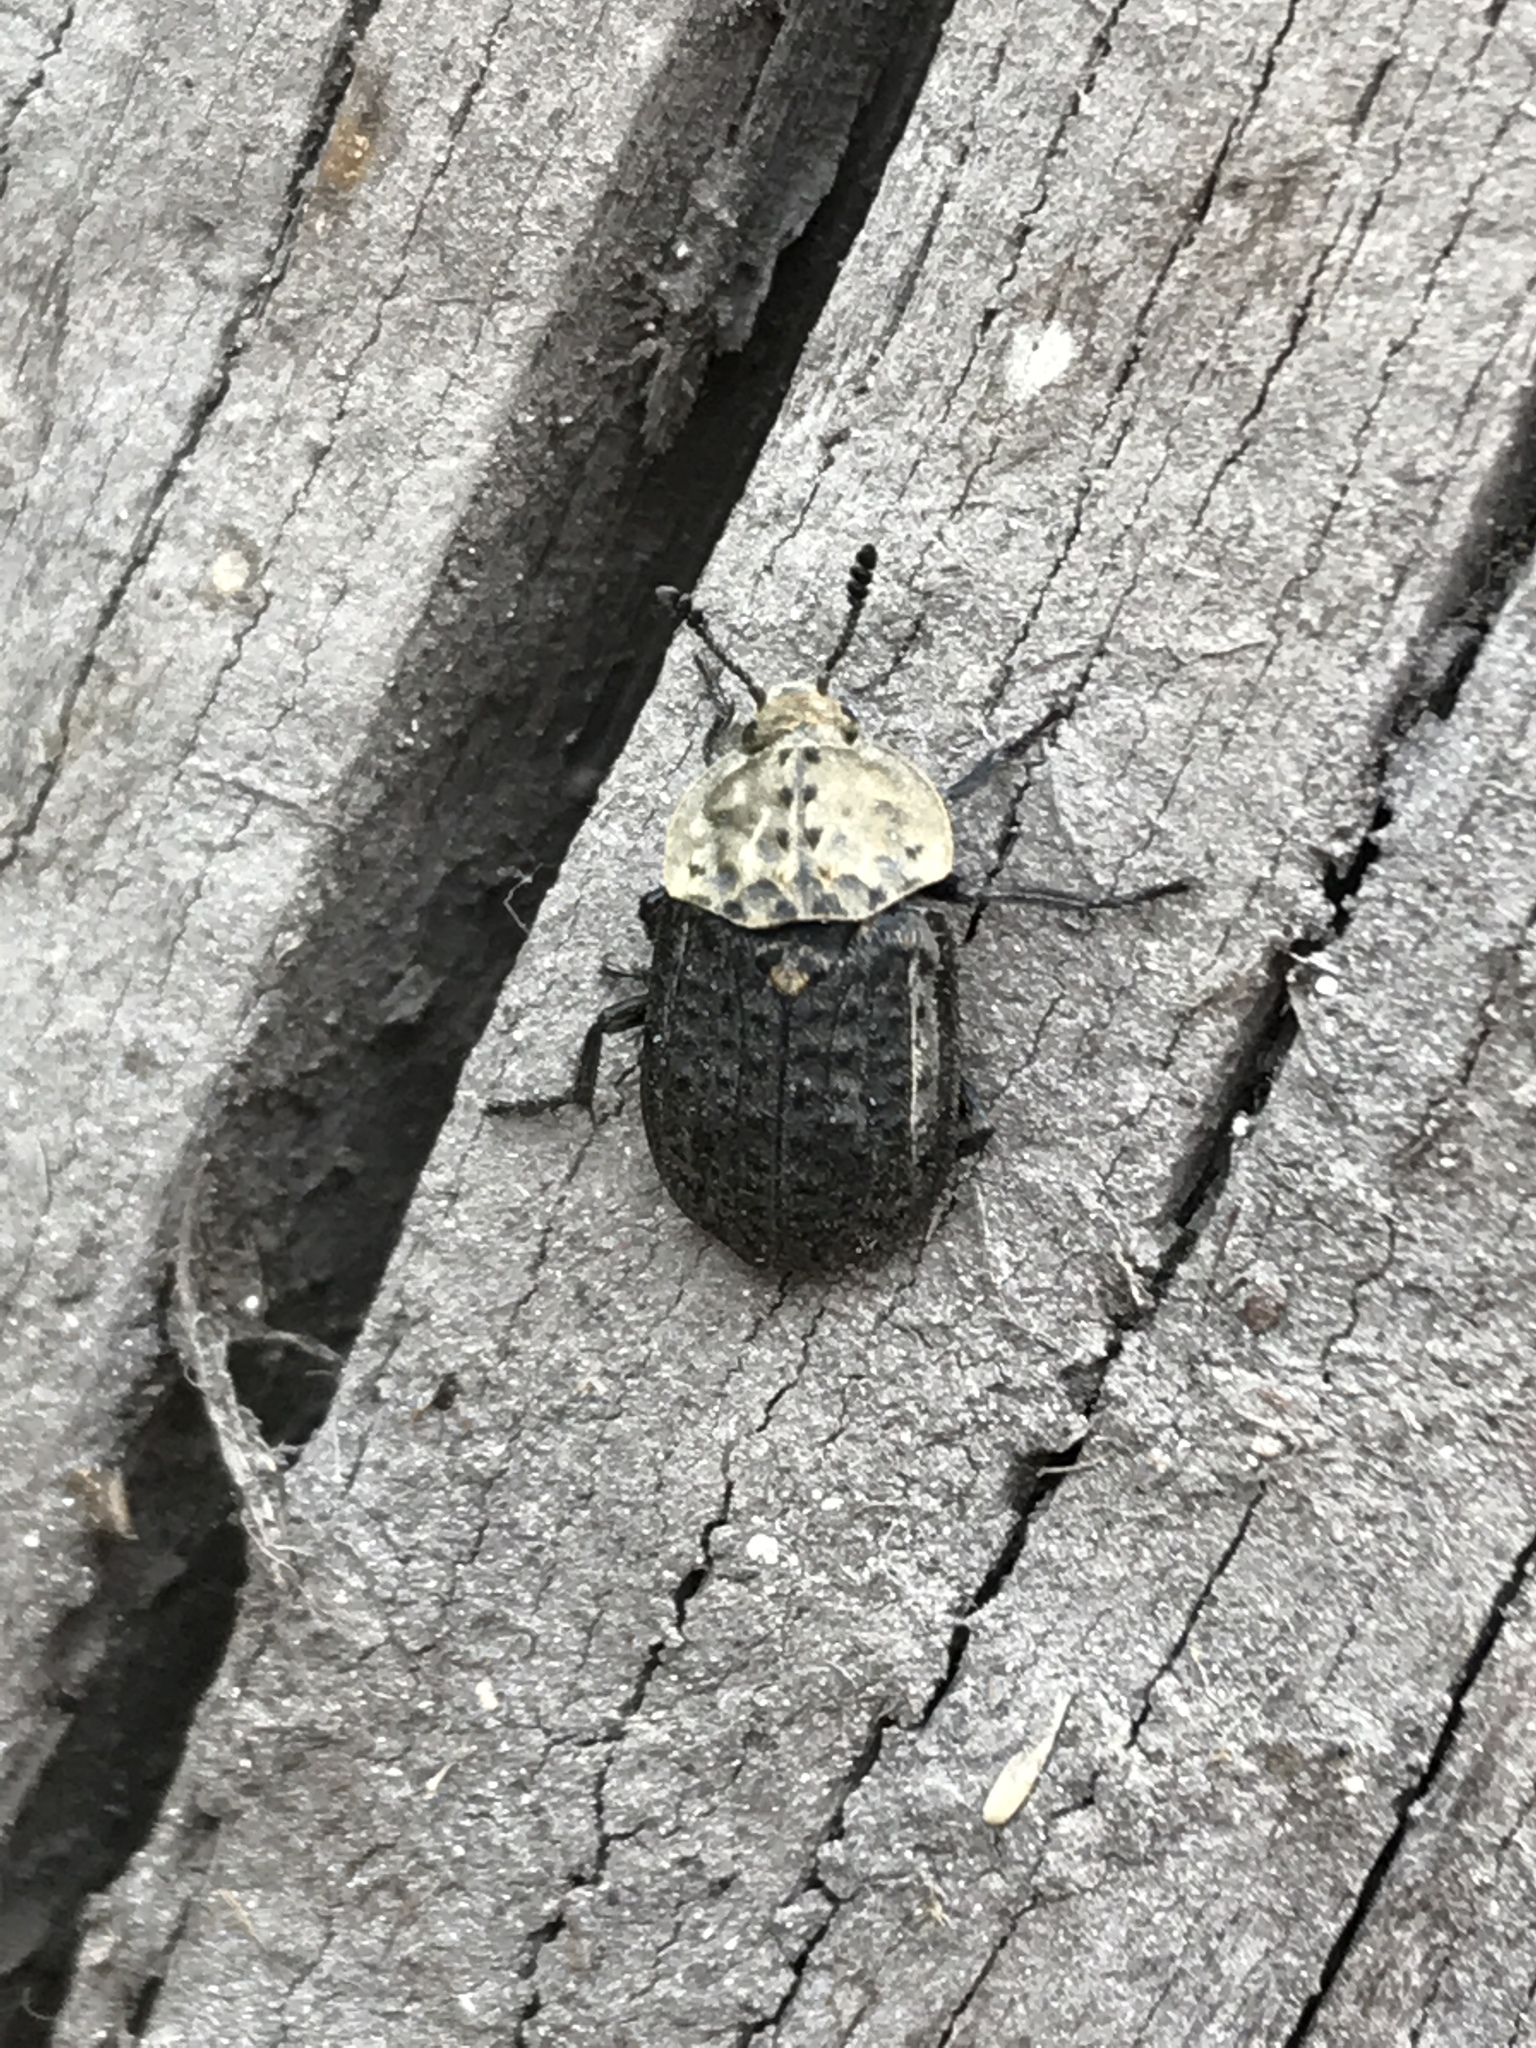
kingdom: Animalia
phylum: Arthropoda
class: Insecta
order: Coleoptera
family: Staphylinidae
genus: Thanatophilus
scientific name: Thanatophilus lapponicus
